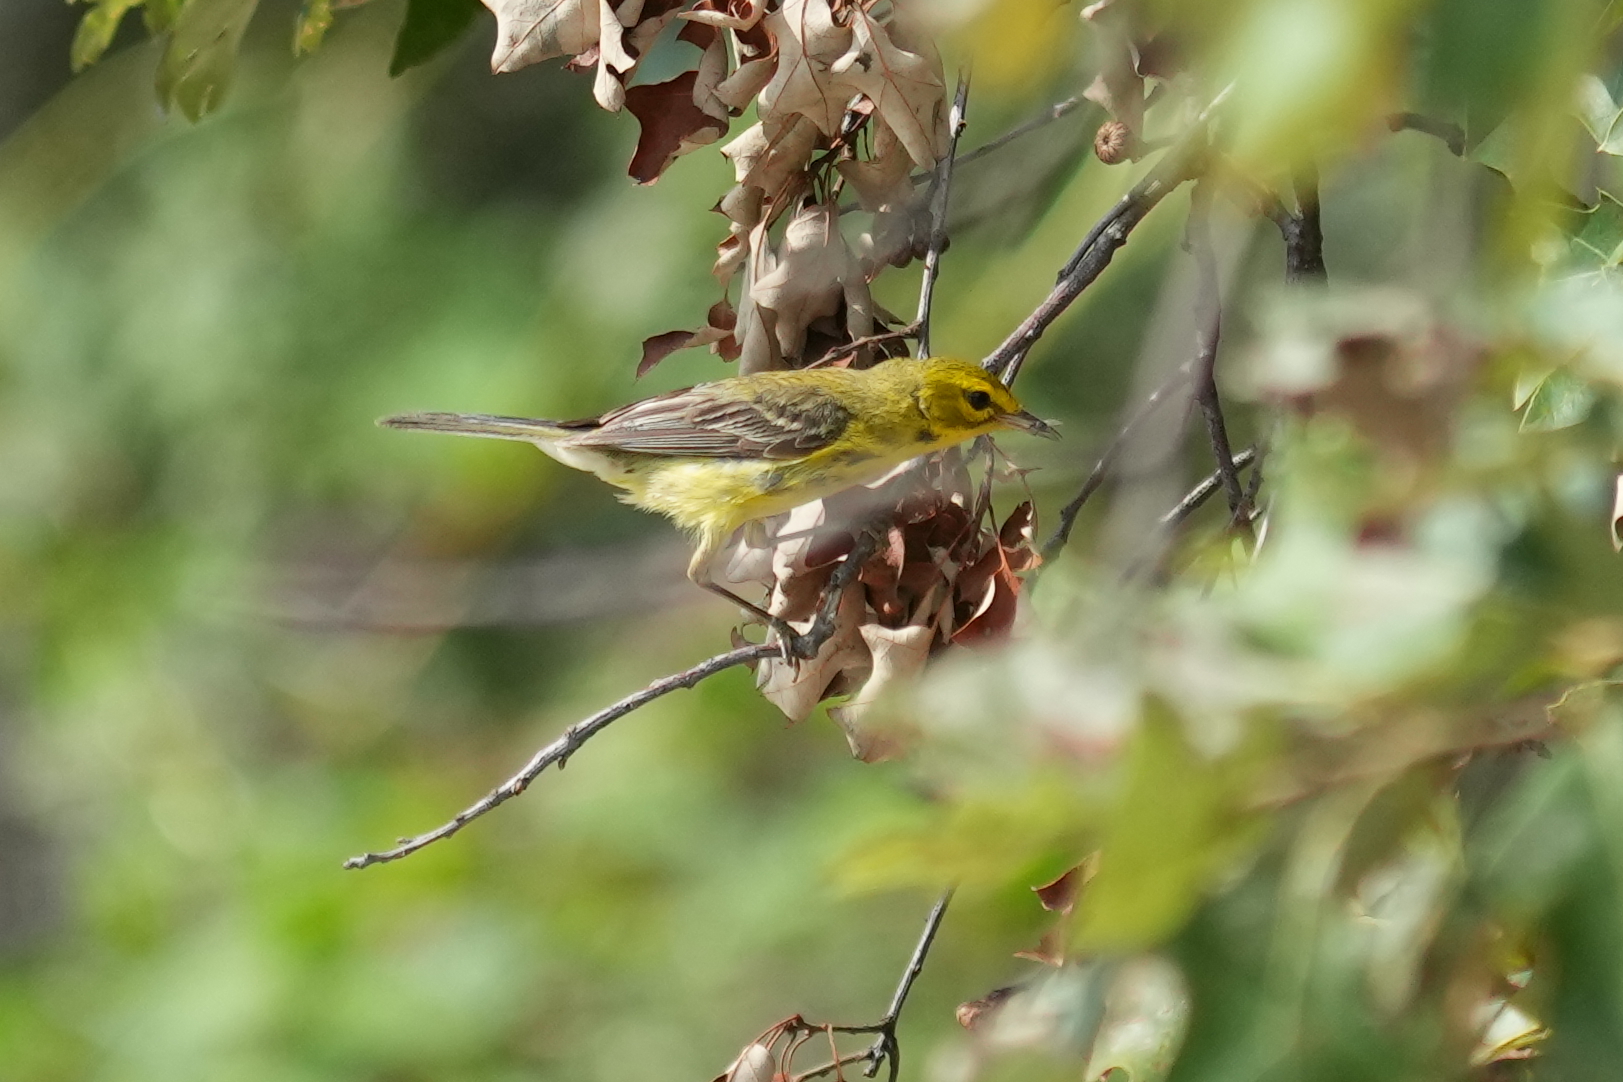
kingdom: Animalia
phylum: Chordata
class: Aves
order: Passeriformes
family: Parulidae
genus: Setophaga
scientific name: Setophaga discolor
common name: Prairie warbler
